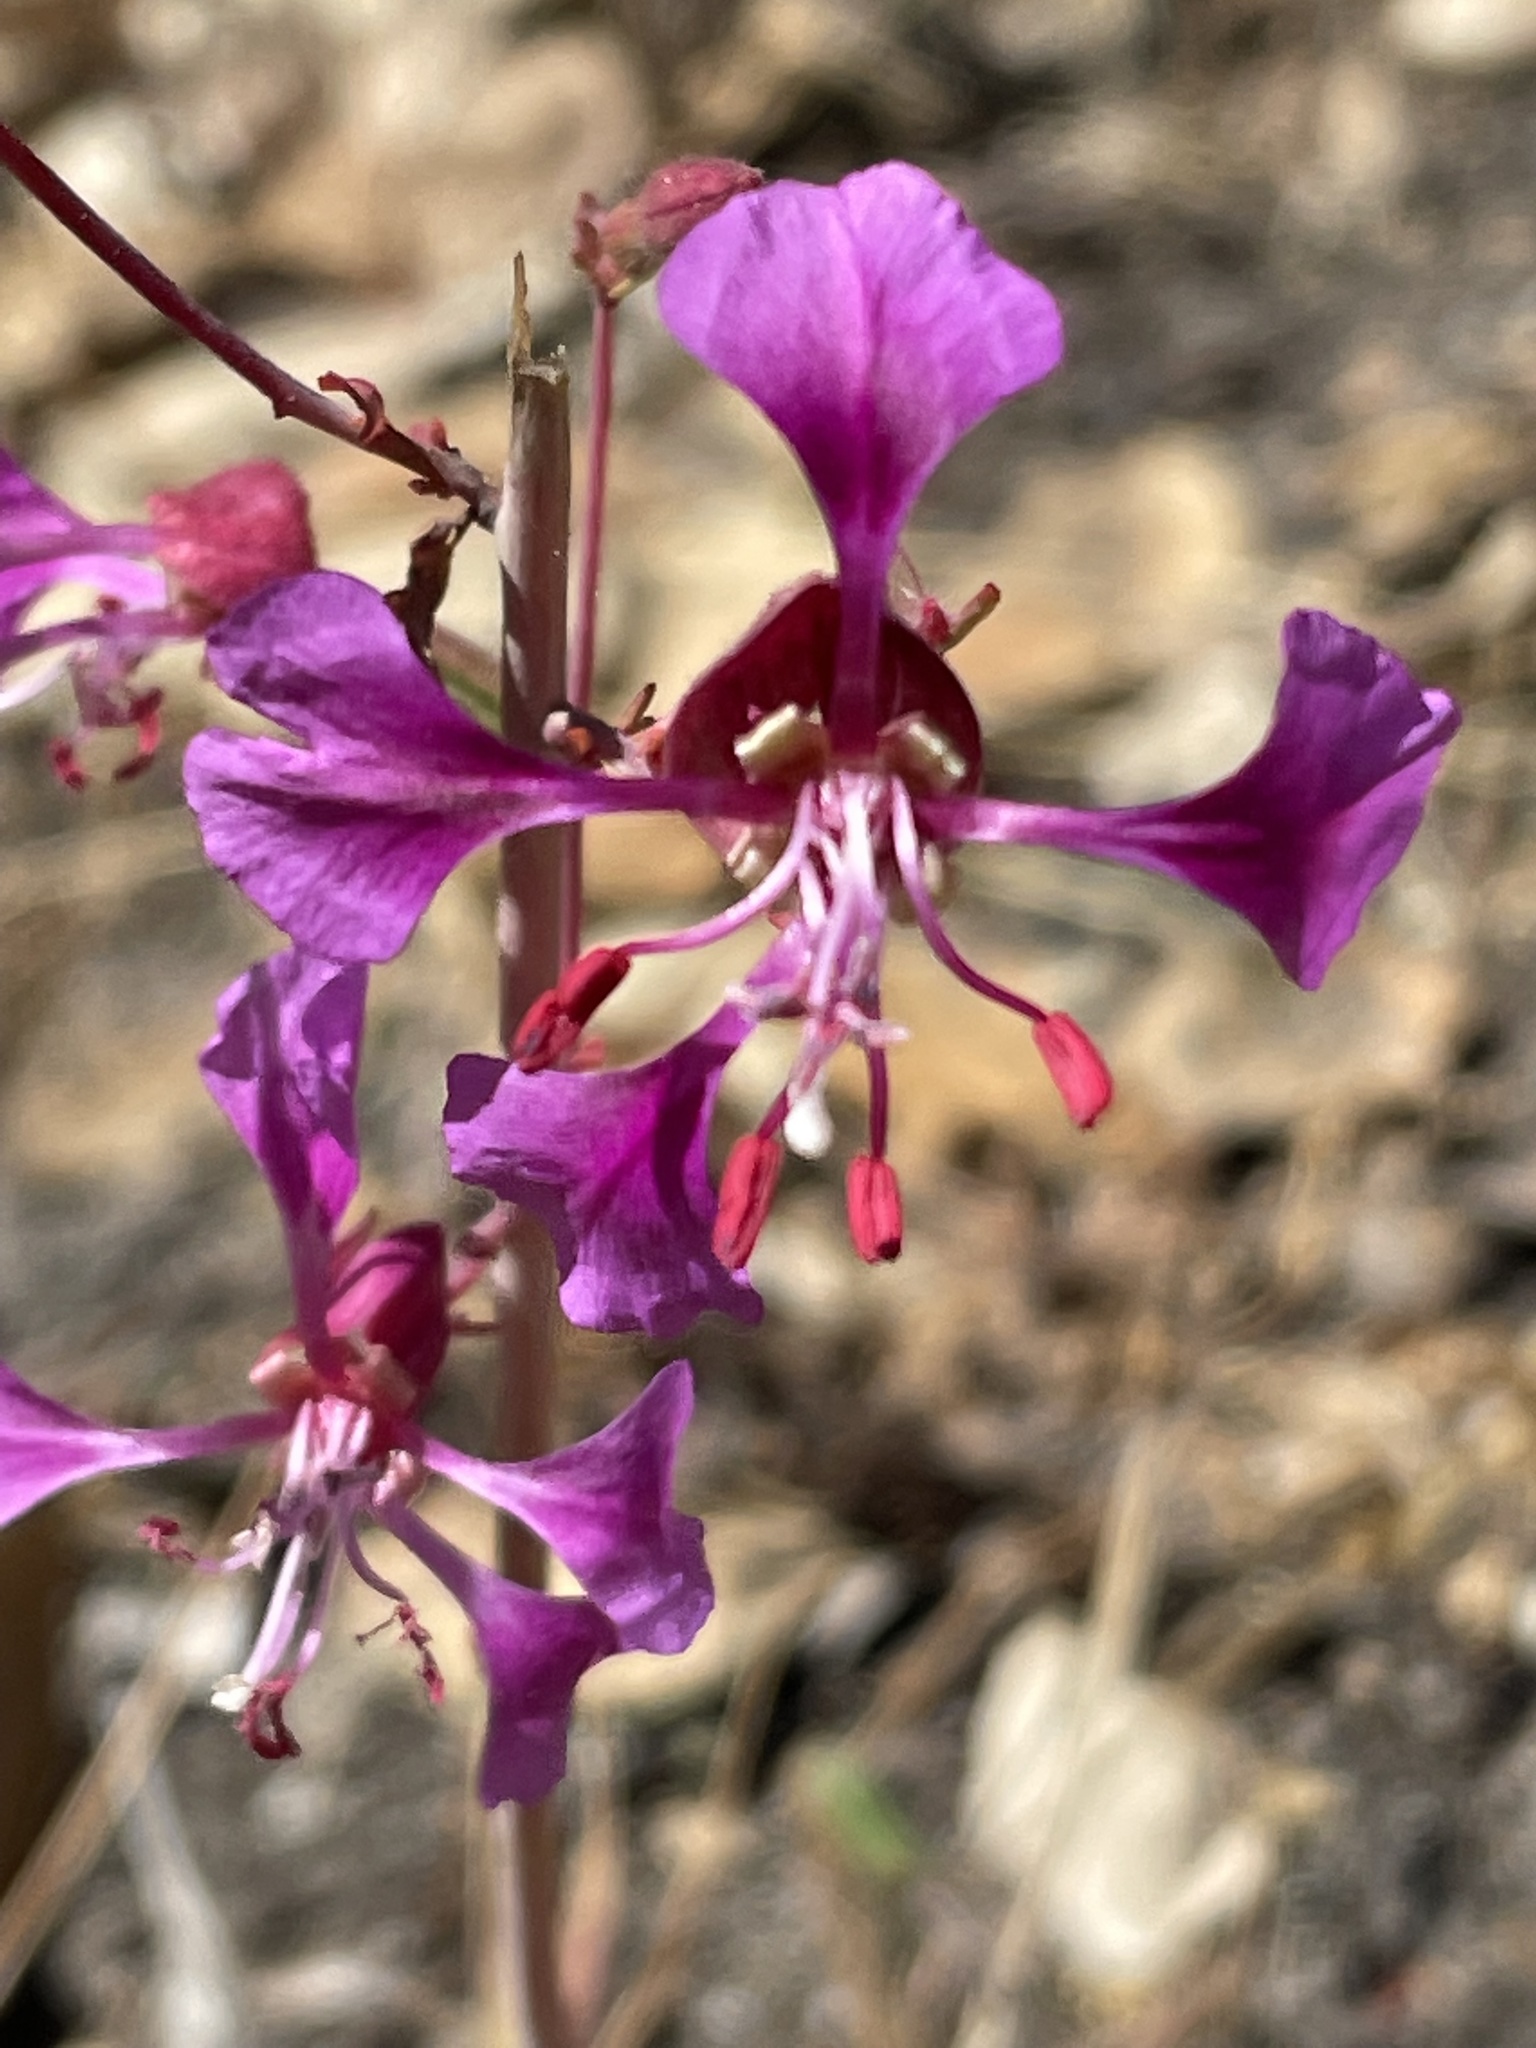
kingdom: Plantae
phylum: Tracheophyta
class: Magnoliopsida
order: Myrtales
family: Onagraceae
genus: Clarkia
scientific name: Clarkia unguiculata
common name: Clarkia
